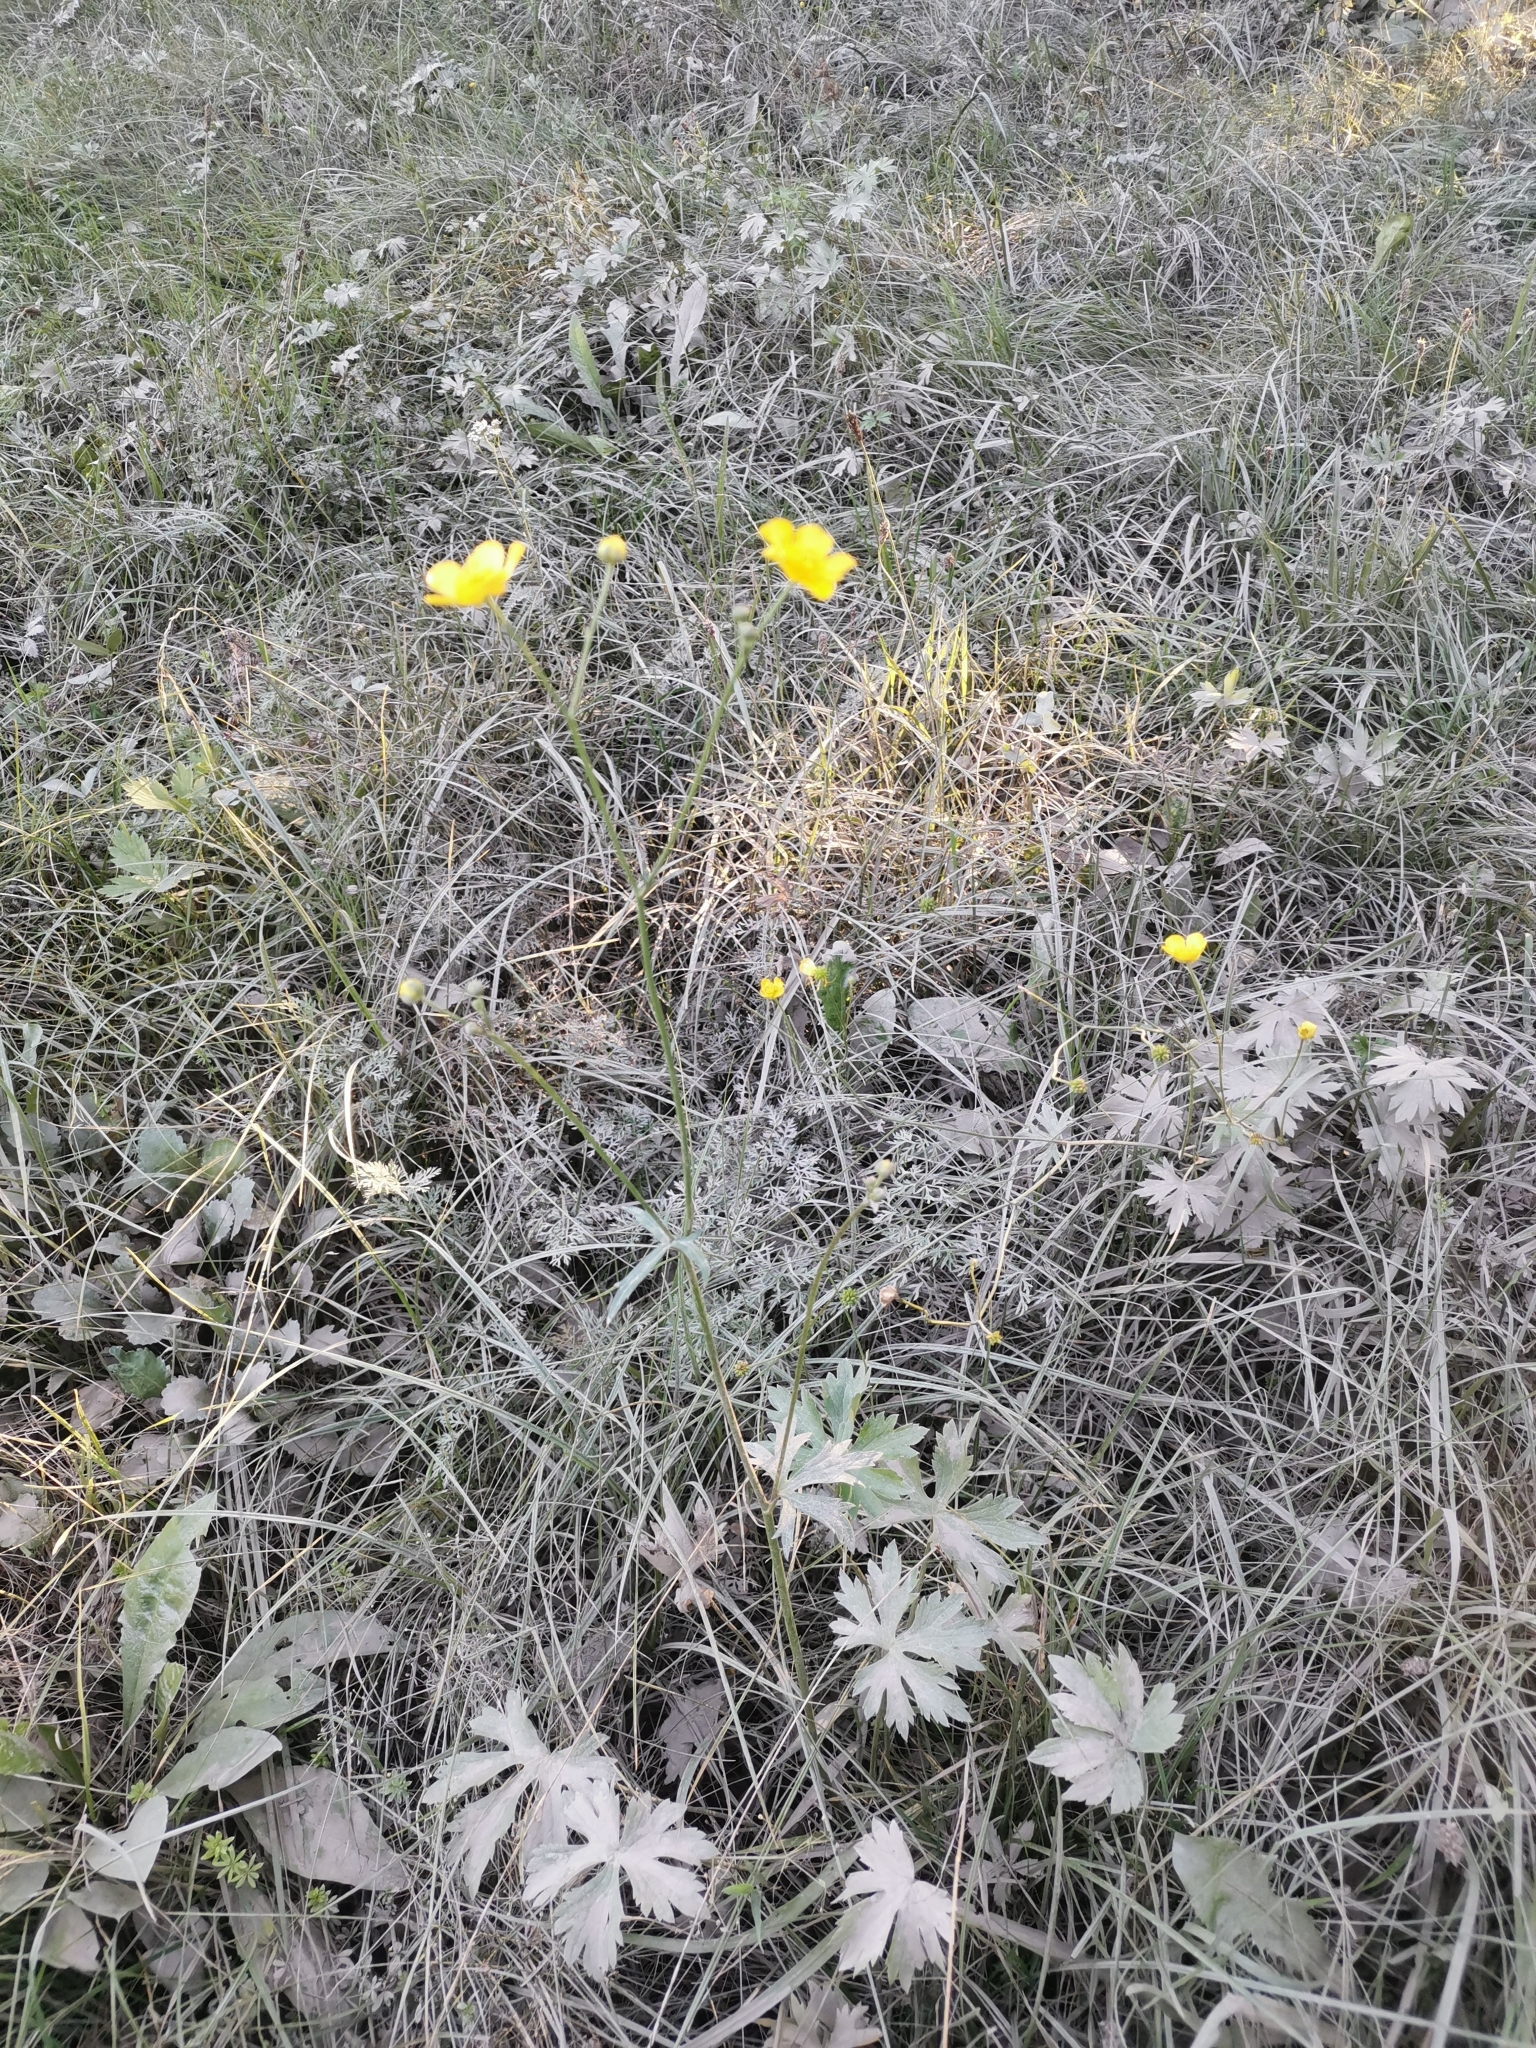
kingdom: Plantae
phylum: Tracheophyta
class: Magnoliopsida
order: Ranunculales
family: Ranunculaceae
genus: Ranunculus
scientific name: Ranunculus acris
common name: Meadow buttercup
